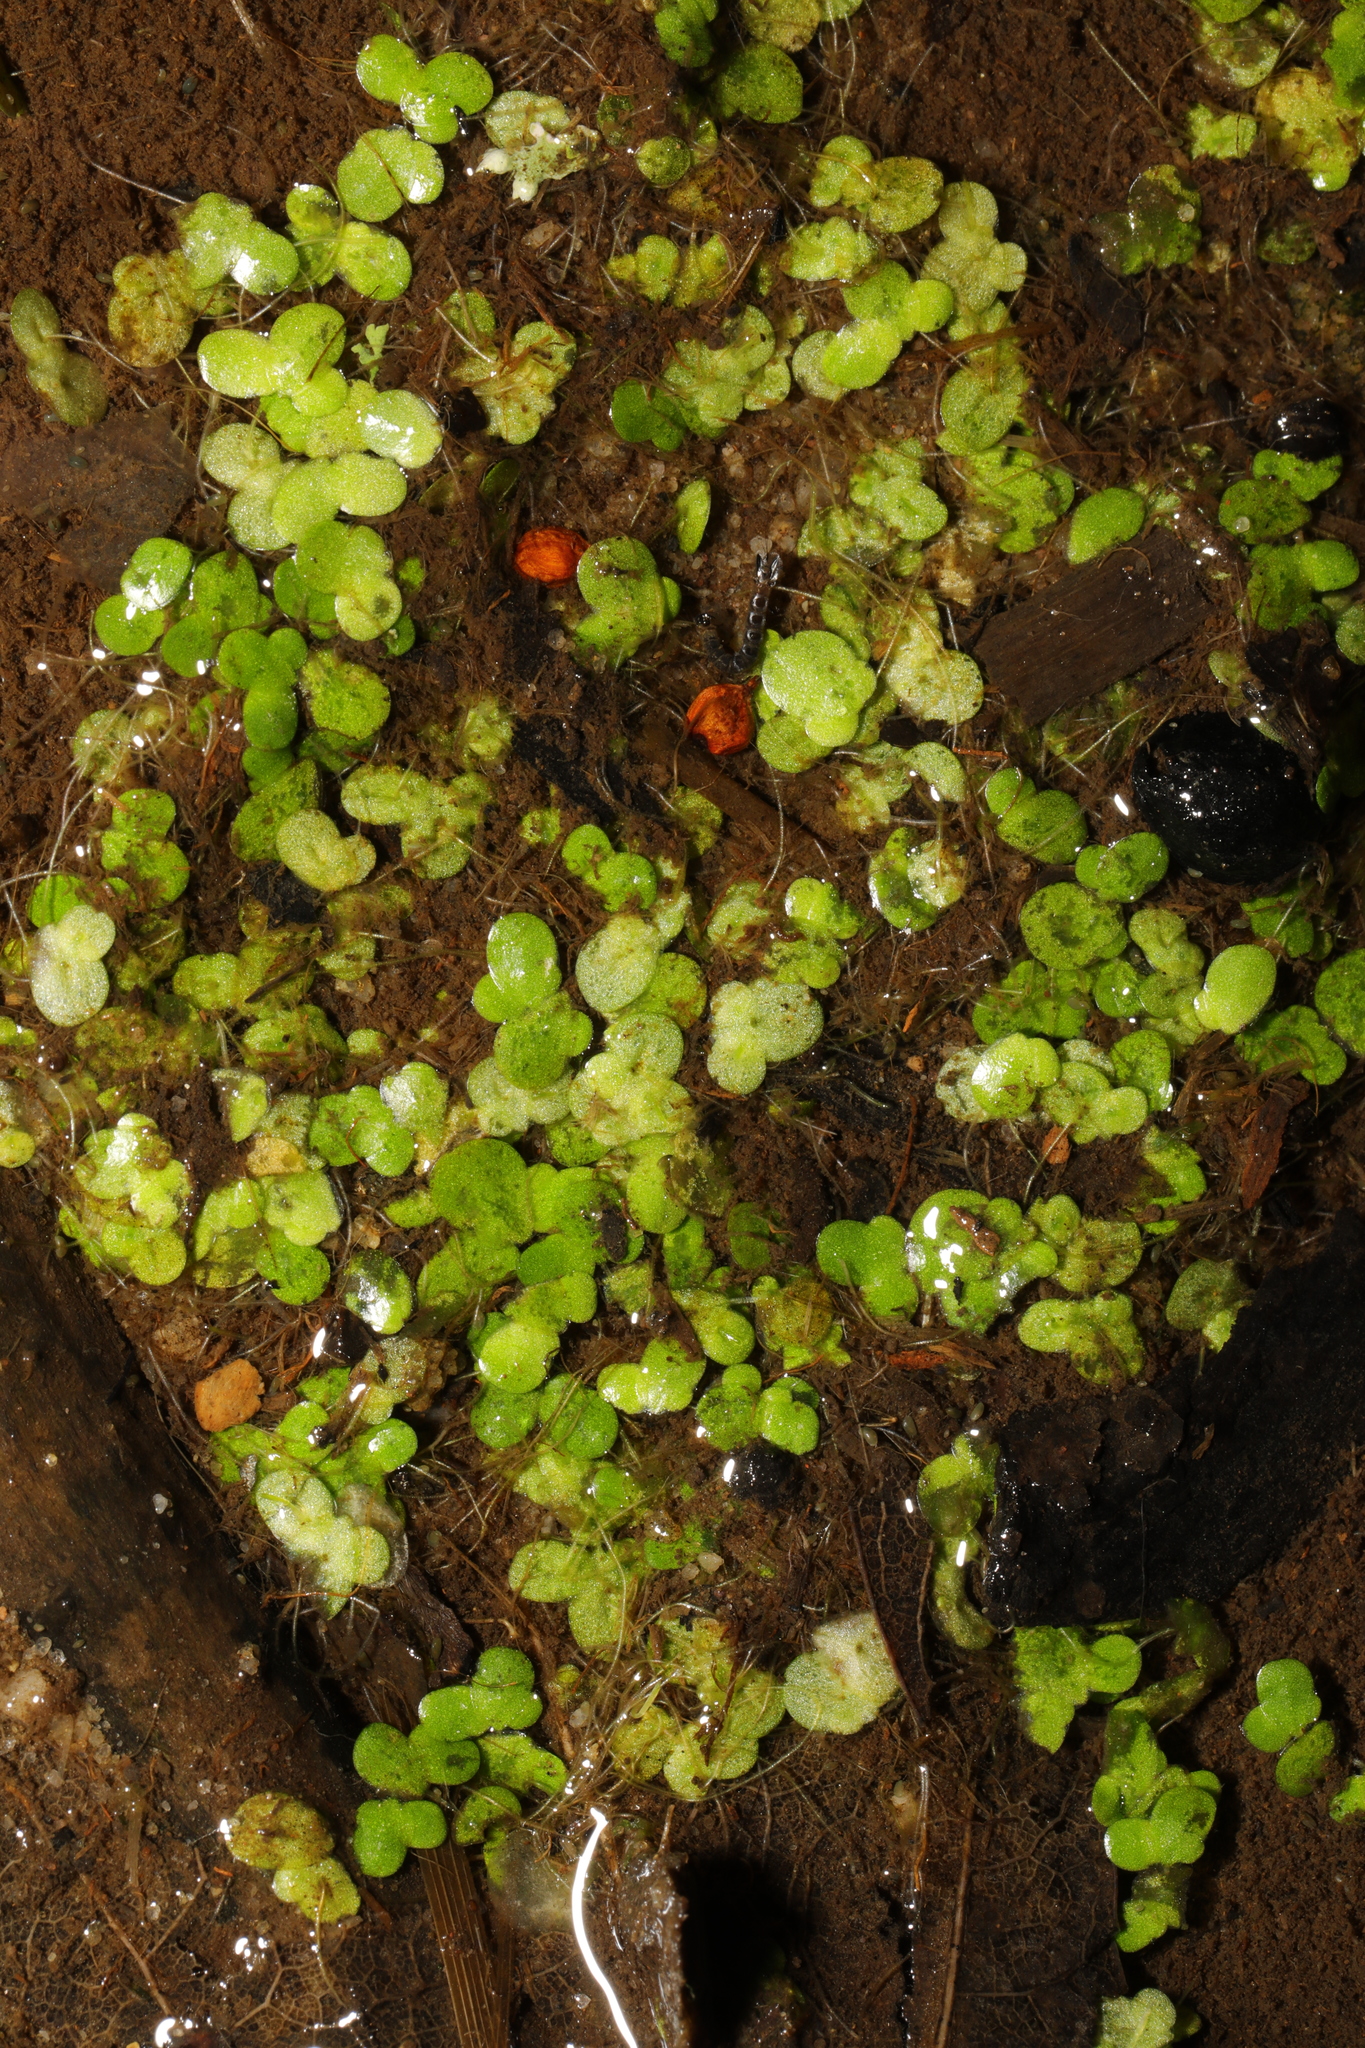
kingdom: Plantae
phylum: Tracheophyta
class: Liliopsida
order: Alismatales
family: Araceae
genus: Lemna
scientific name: Lemna minor
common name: Common duckweed
